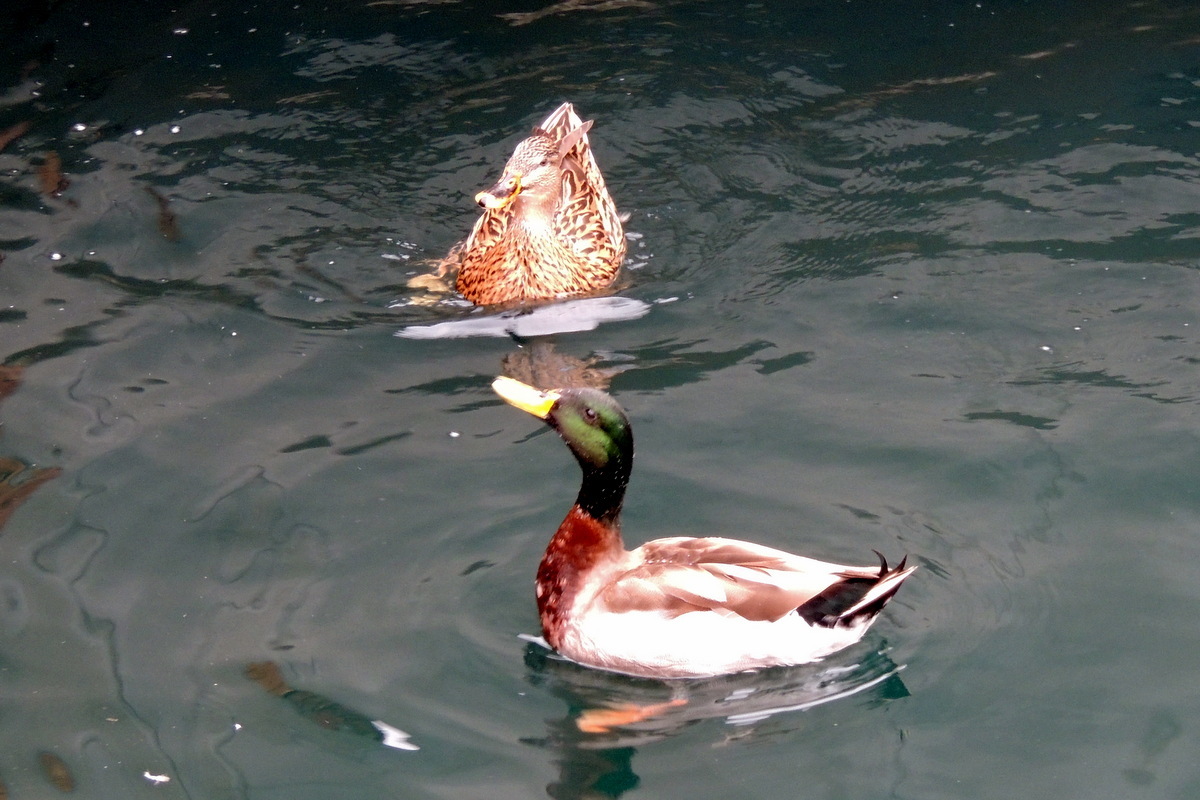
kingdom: Animalia
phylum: Chordata
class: Aves
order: Anseriformes
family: Anatidae
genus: Anas
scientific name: Anas platyrhynchos
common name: Mallard
